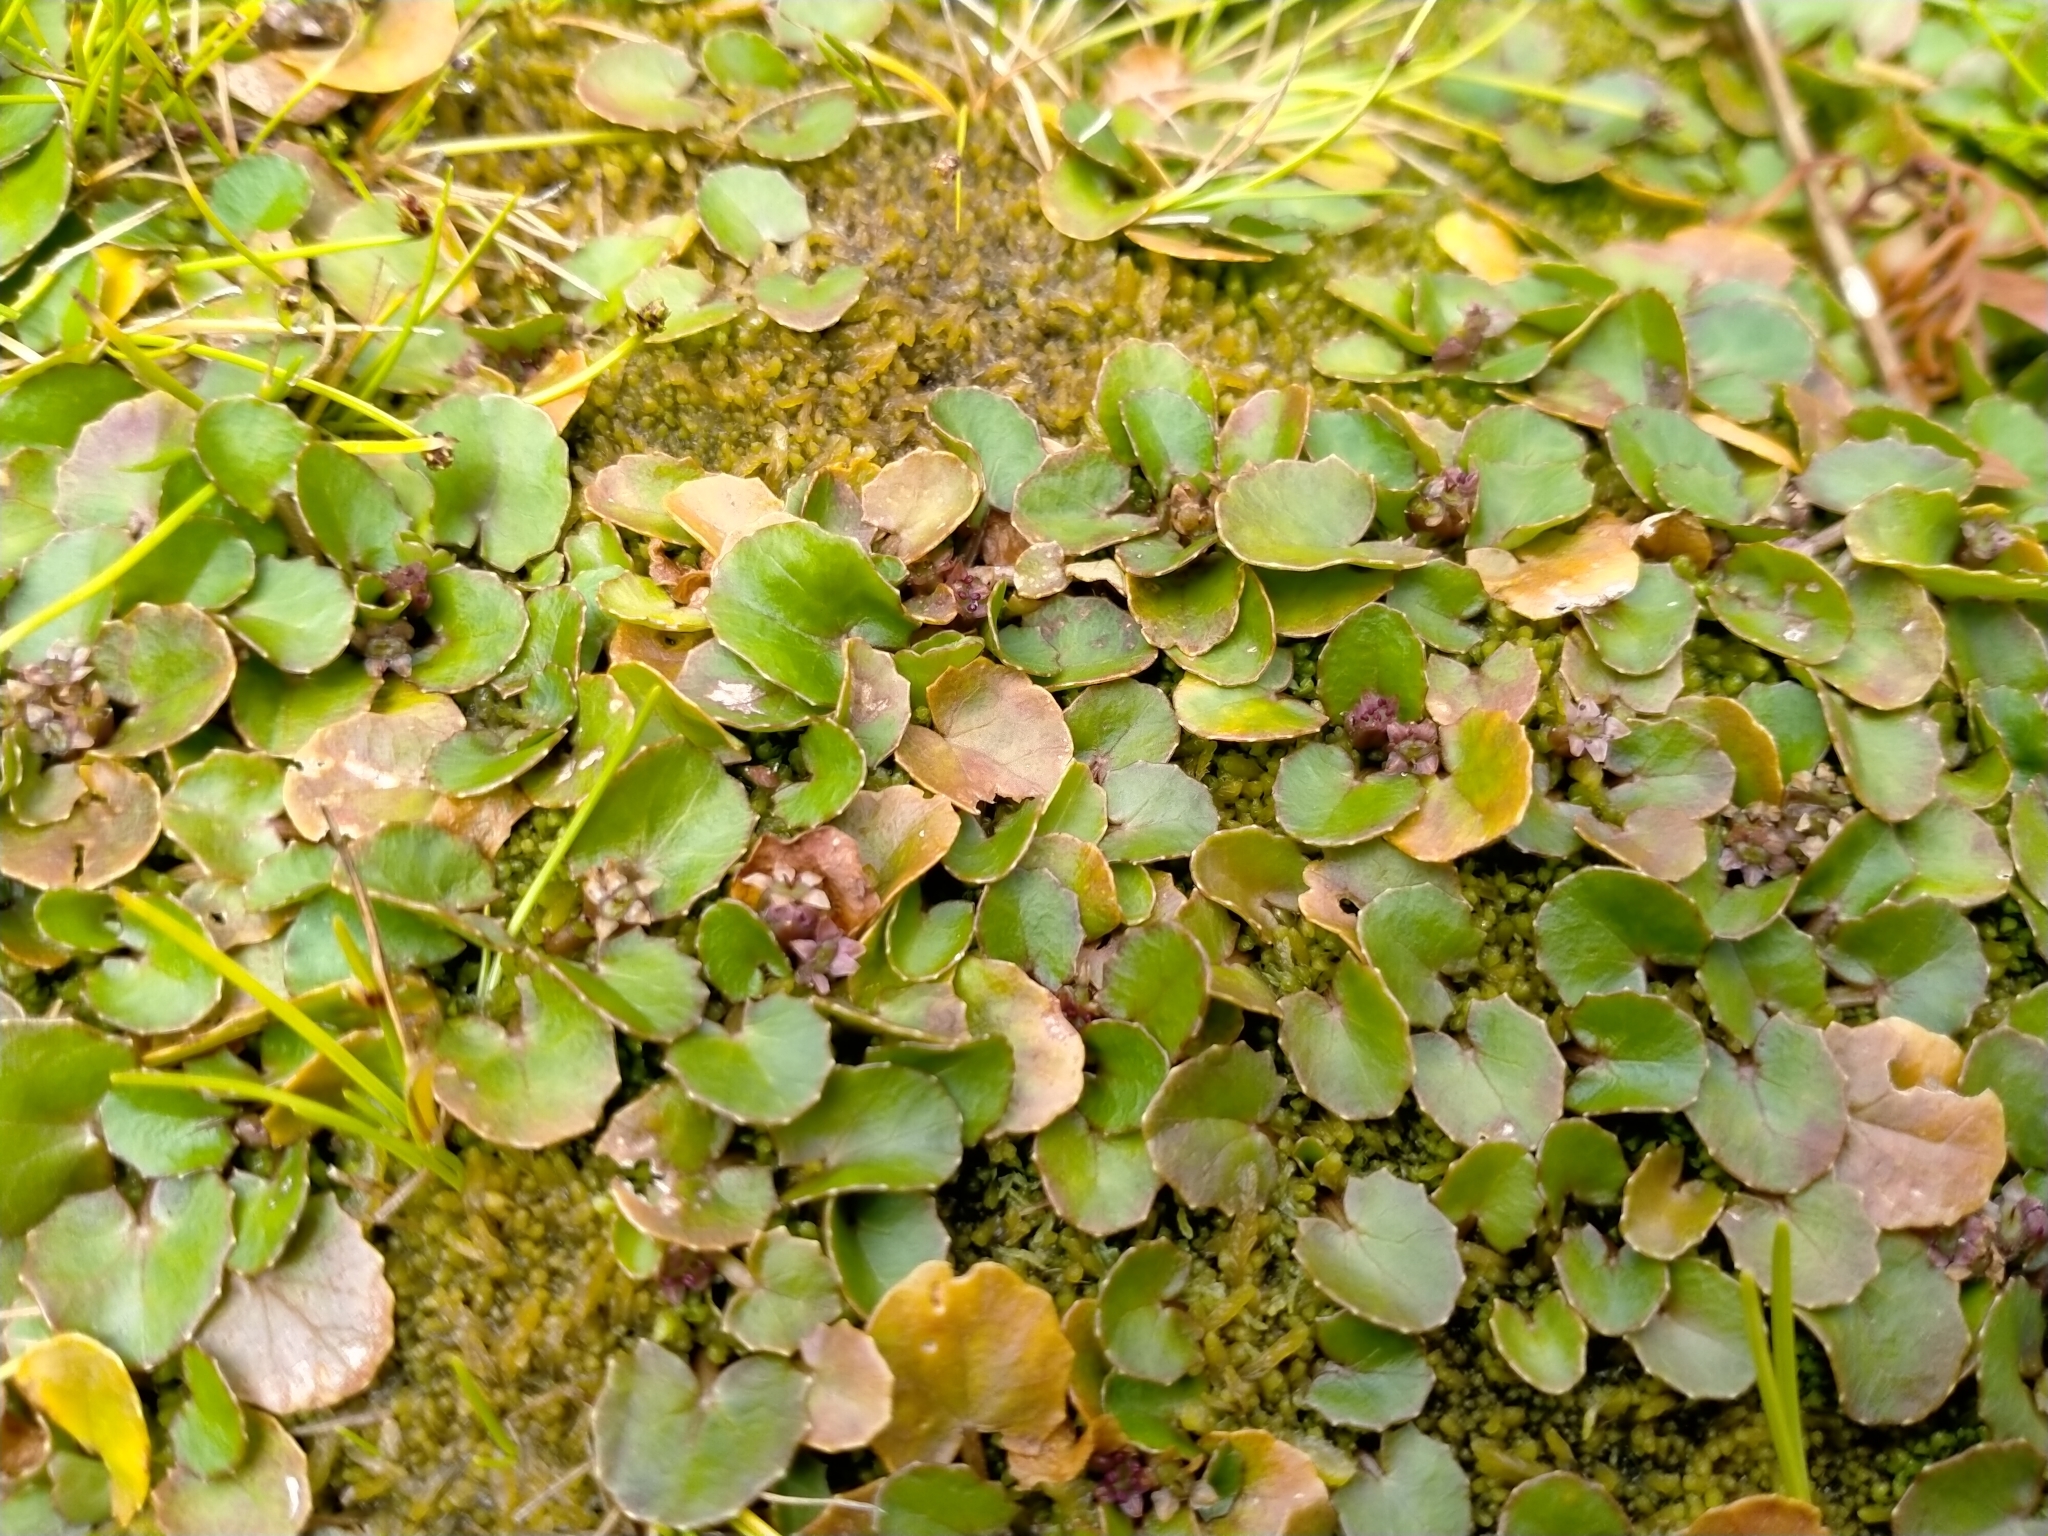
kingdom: Plantae
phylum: Tracheophyta
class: Magnoliopsida
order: Apiales
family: Apiaceae
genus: Centella
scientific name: Centella uniflora
